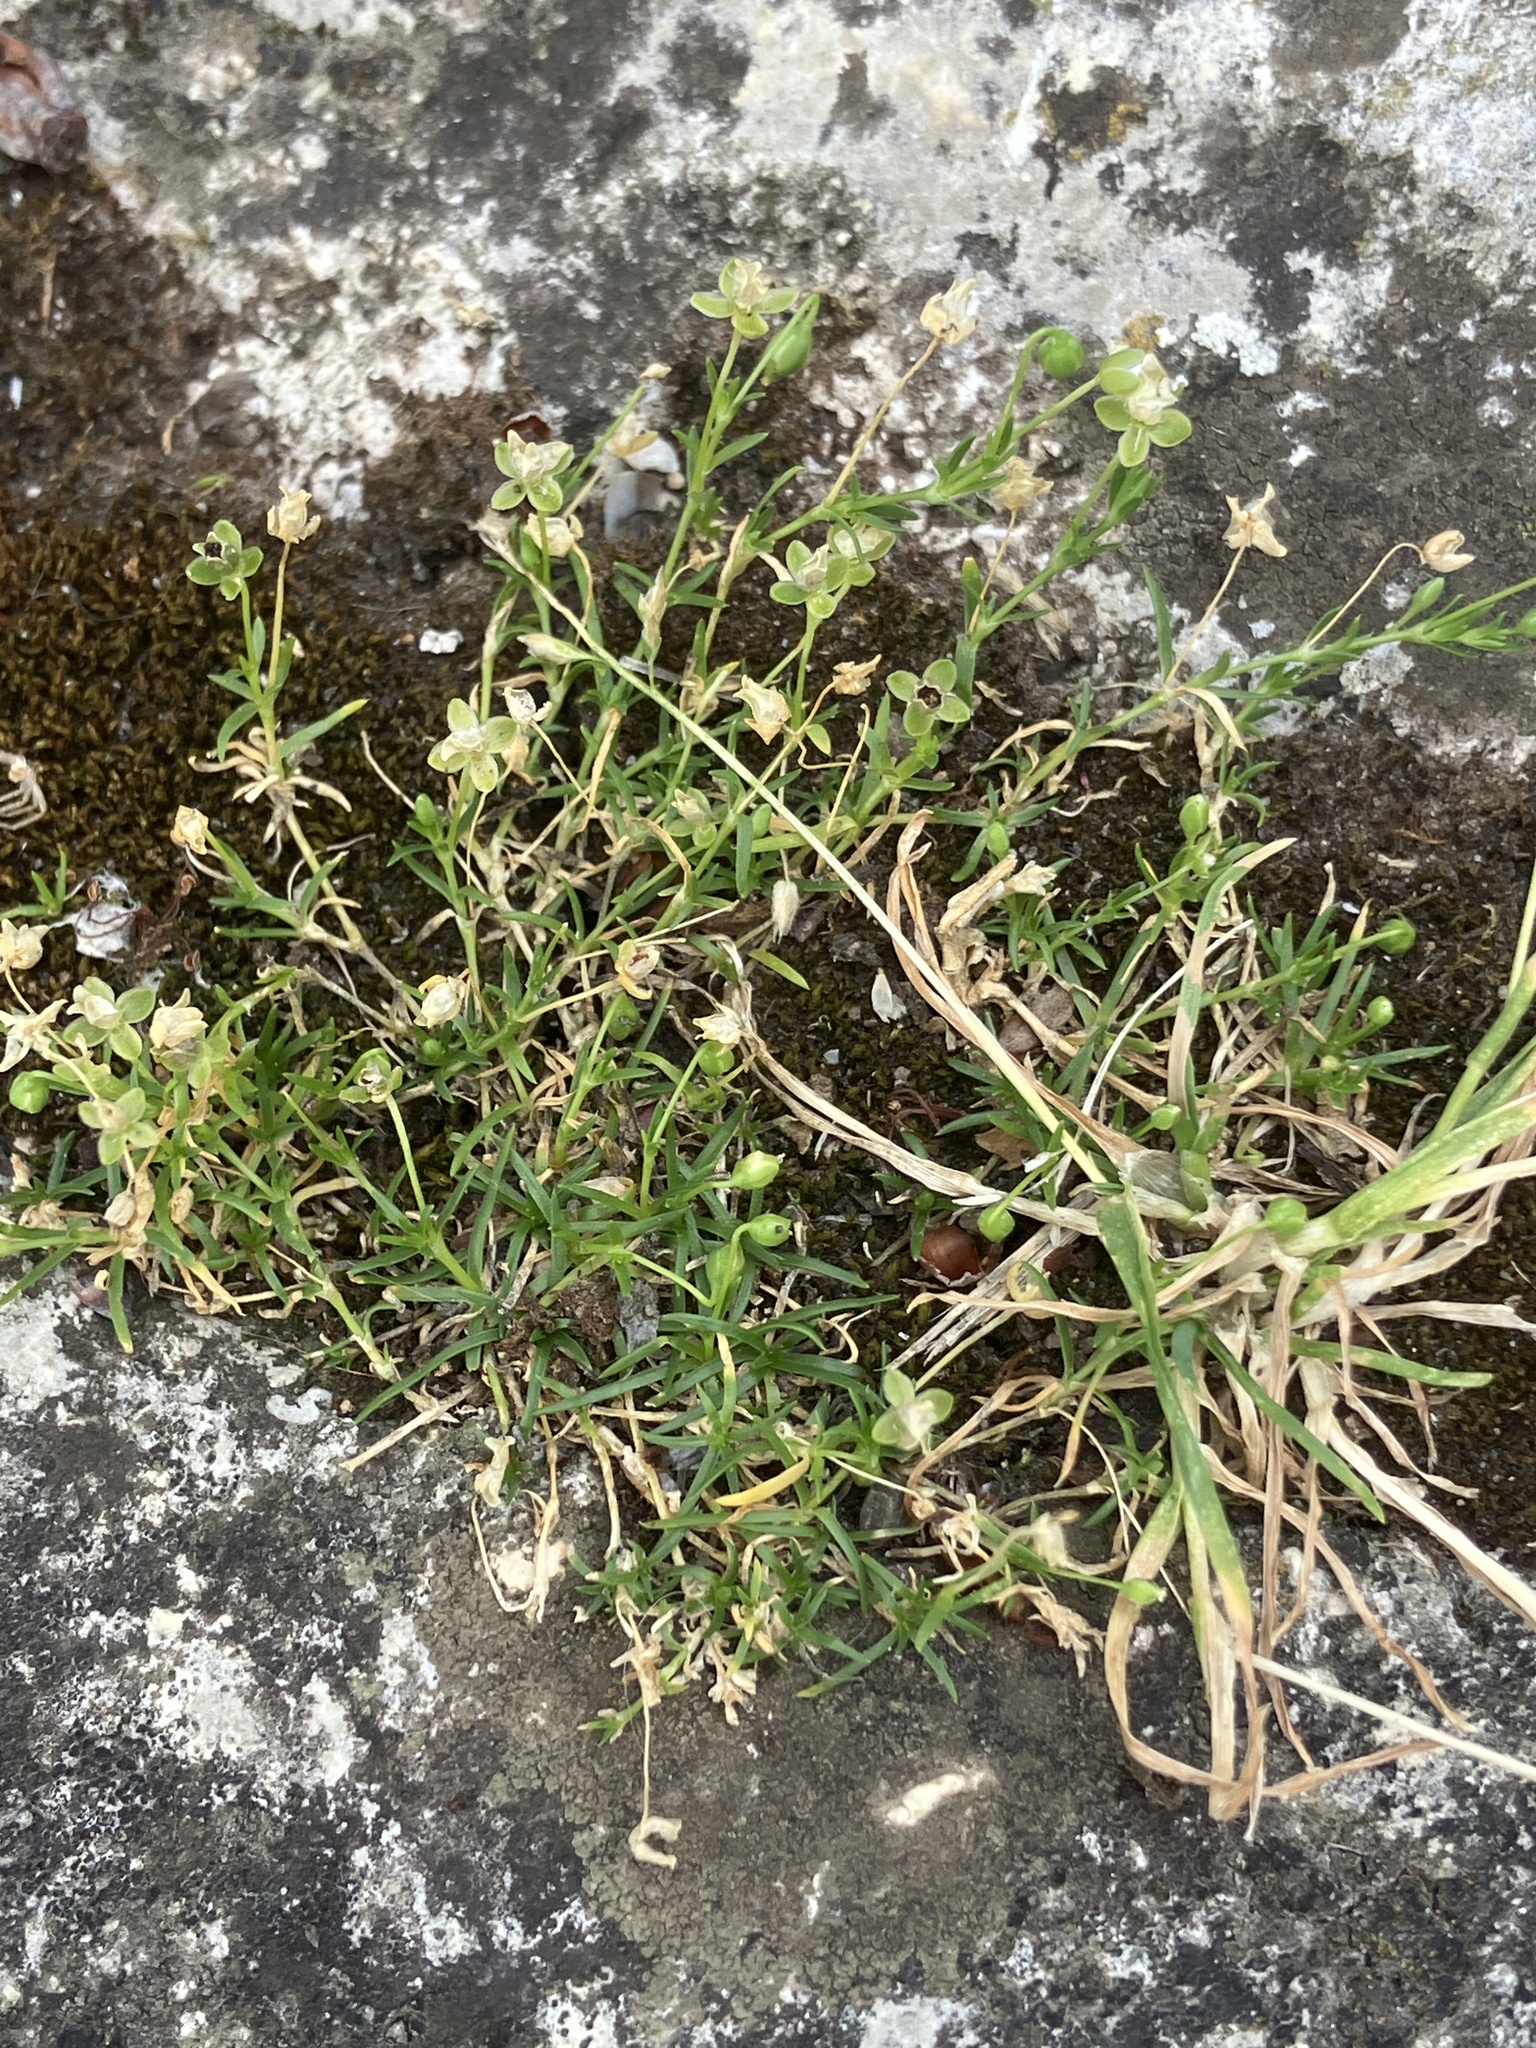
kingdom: Plantae
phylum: Tracheophyta
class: Magnoliopsida
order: Caryophyllales
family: Caryophyllaceae
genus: Sagina
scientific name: Sagina procumbens
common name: Procumbent pearlwort
